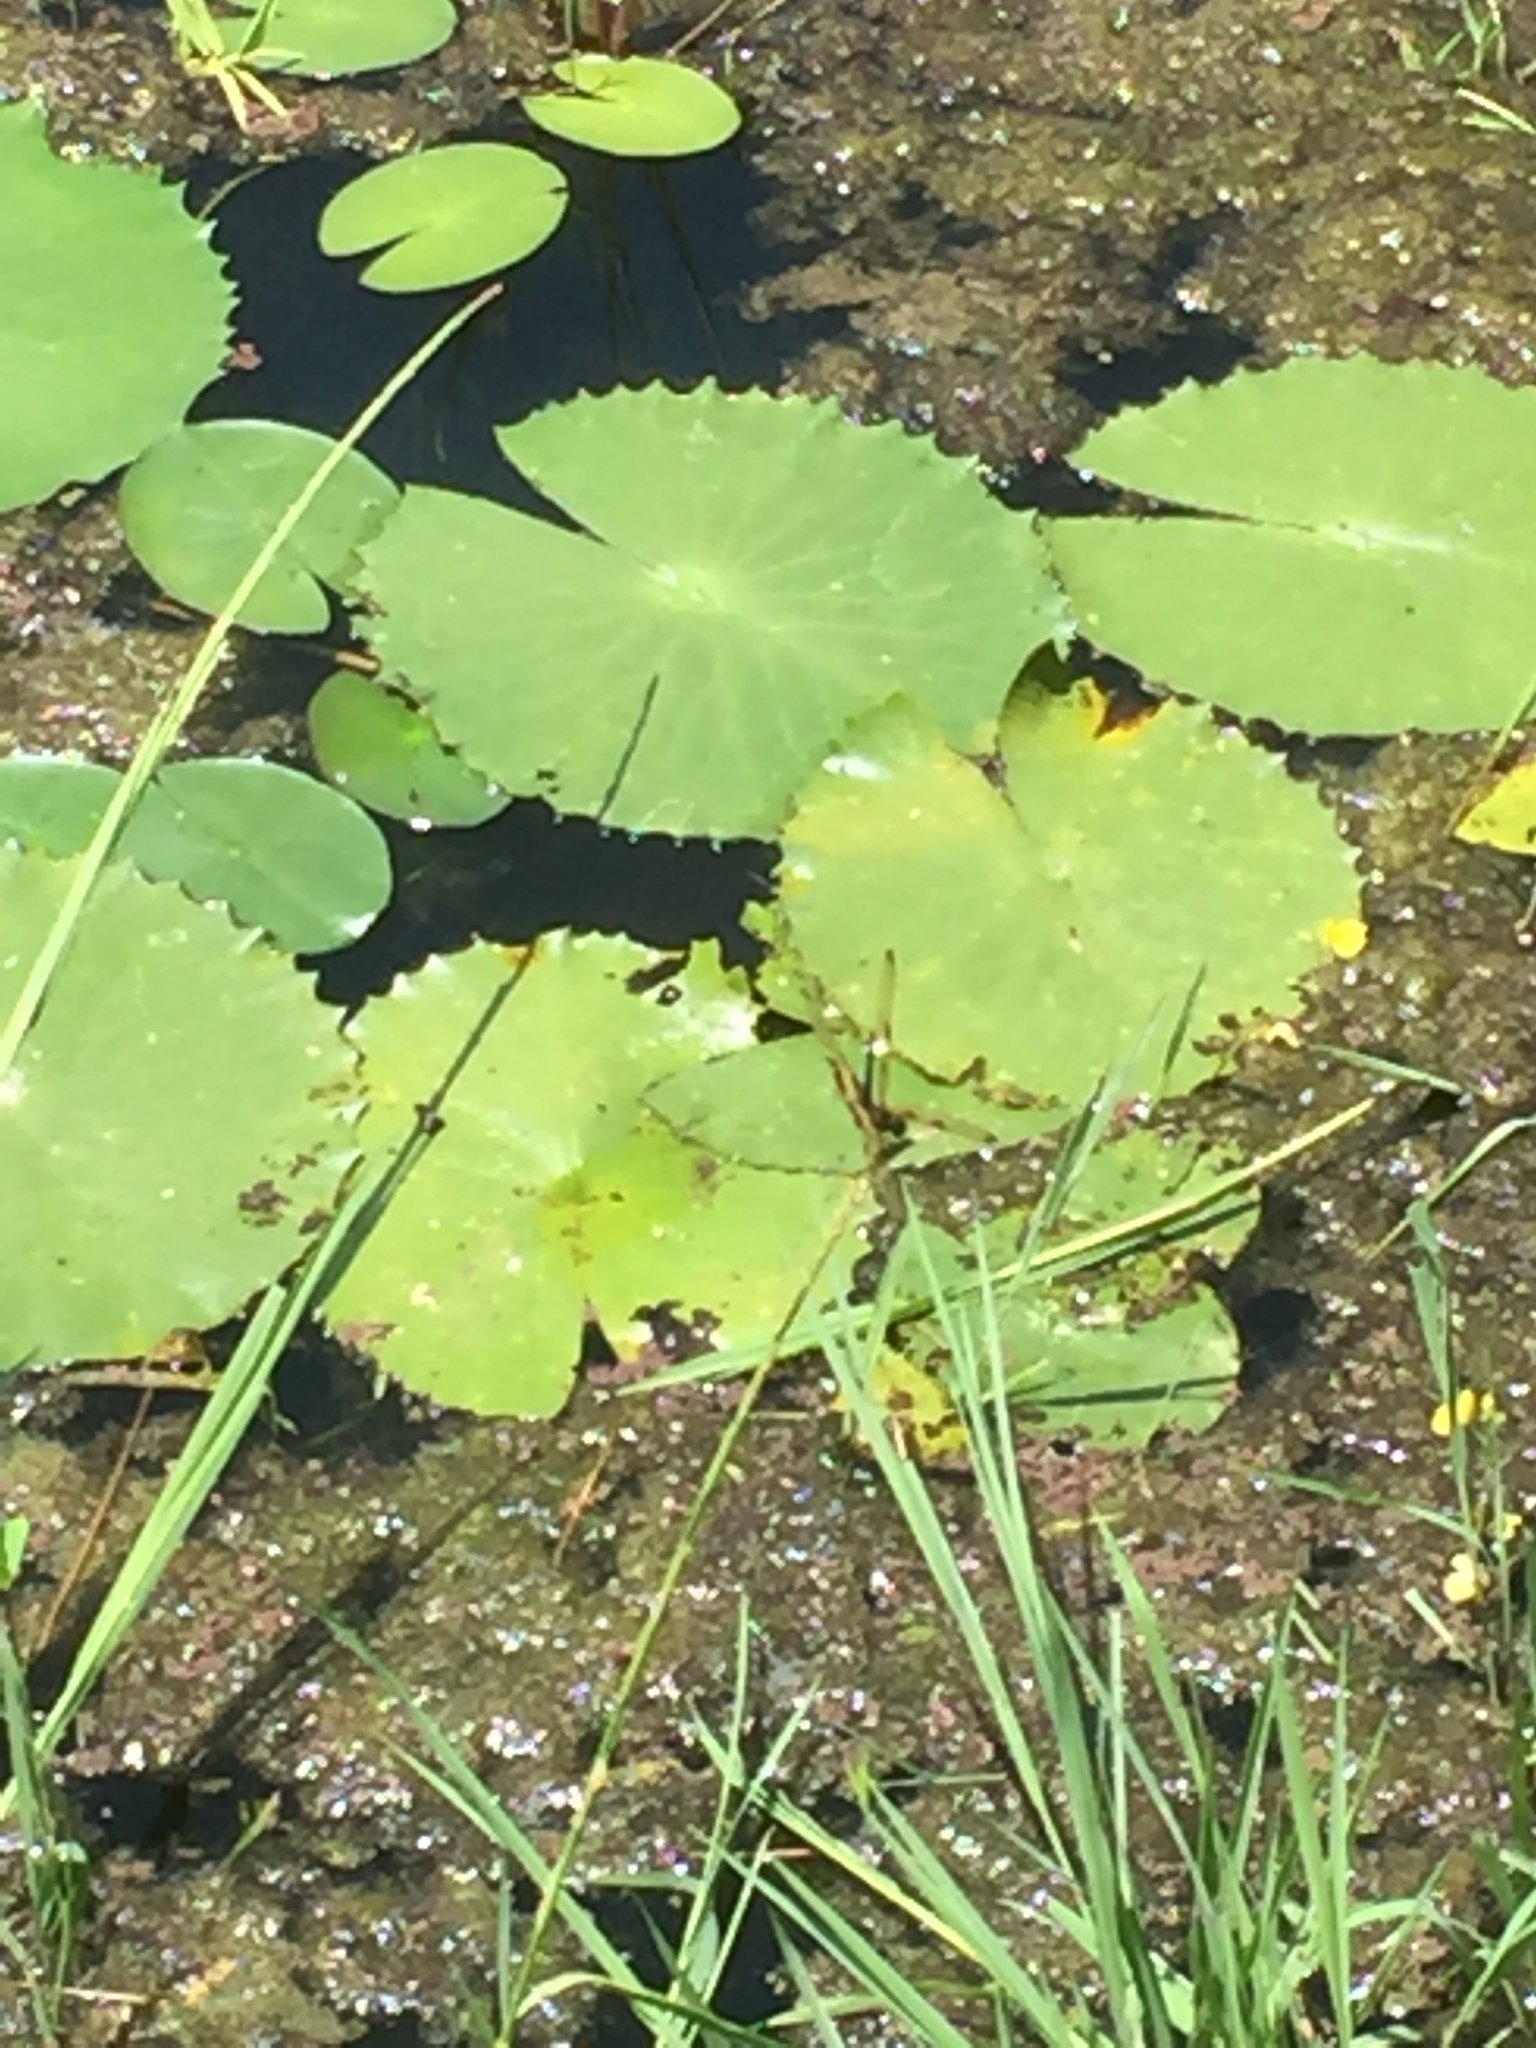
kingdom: Animalia
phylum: Arthropoda
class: Insecta
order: Odonata
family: Libellulidae
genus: Rhyothemis
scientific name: Rhyothemis variegata
